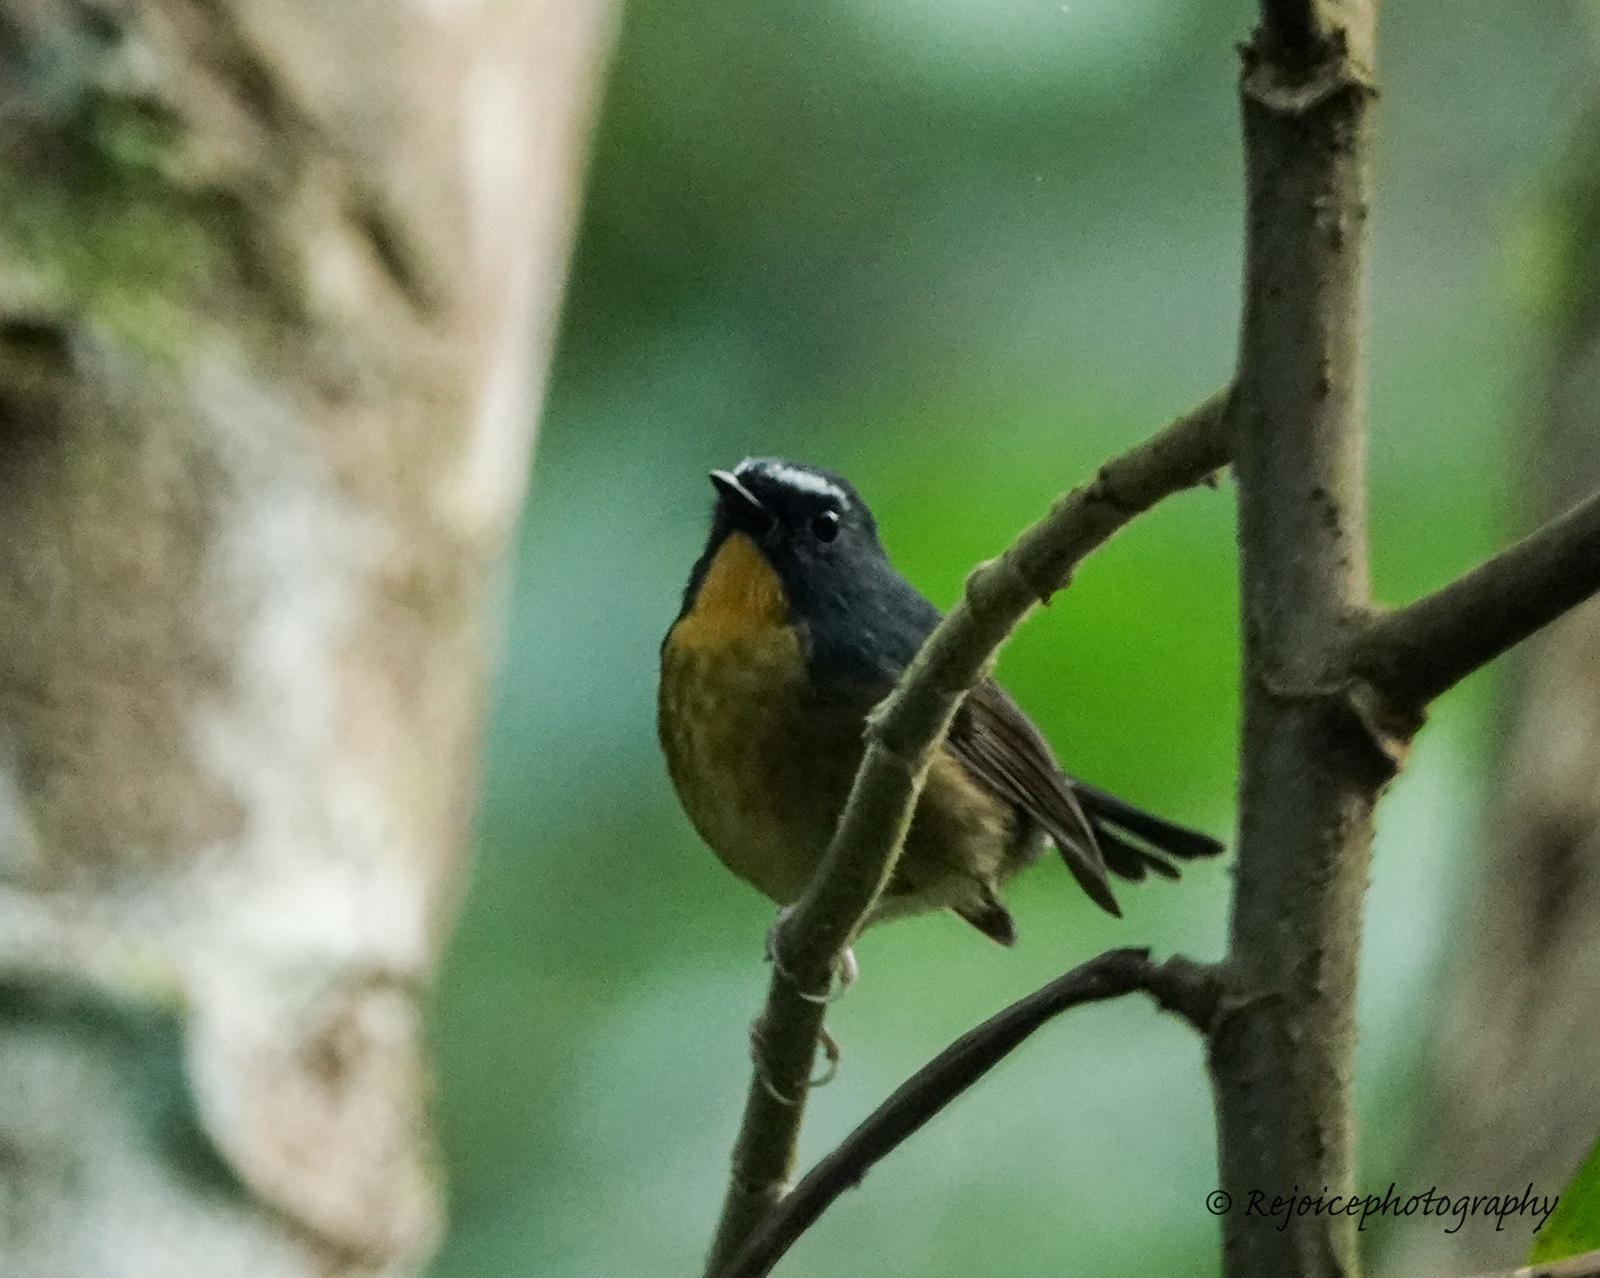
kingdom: Animalia
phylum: Chordata
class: Aves
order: Passeriformes
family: Muscicapidae
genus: Ficedula
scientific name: Ficedula hyperythra
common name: Snowy-browed flycatcher
